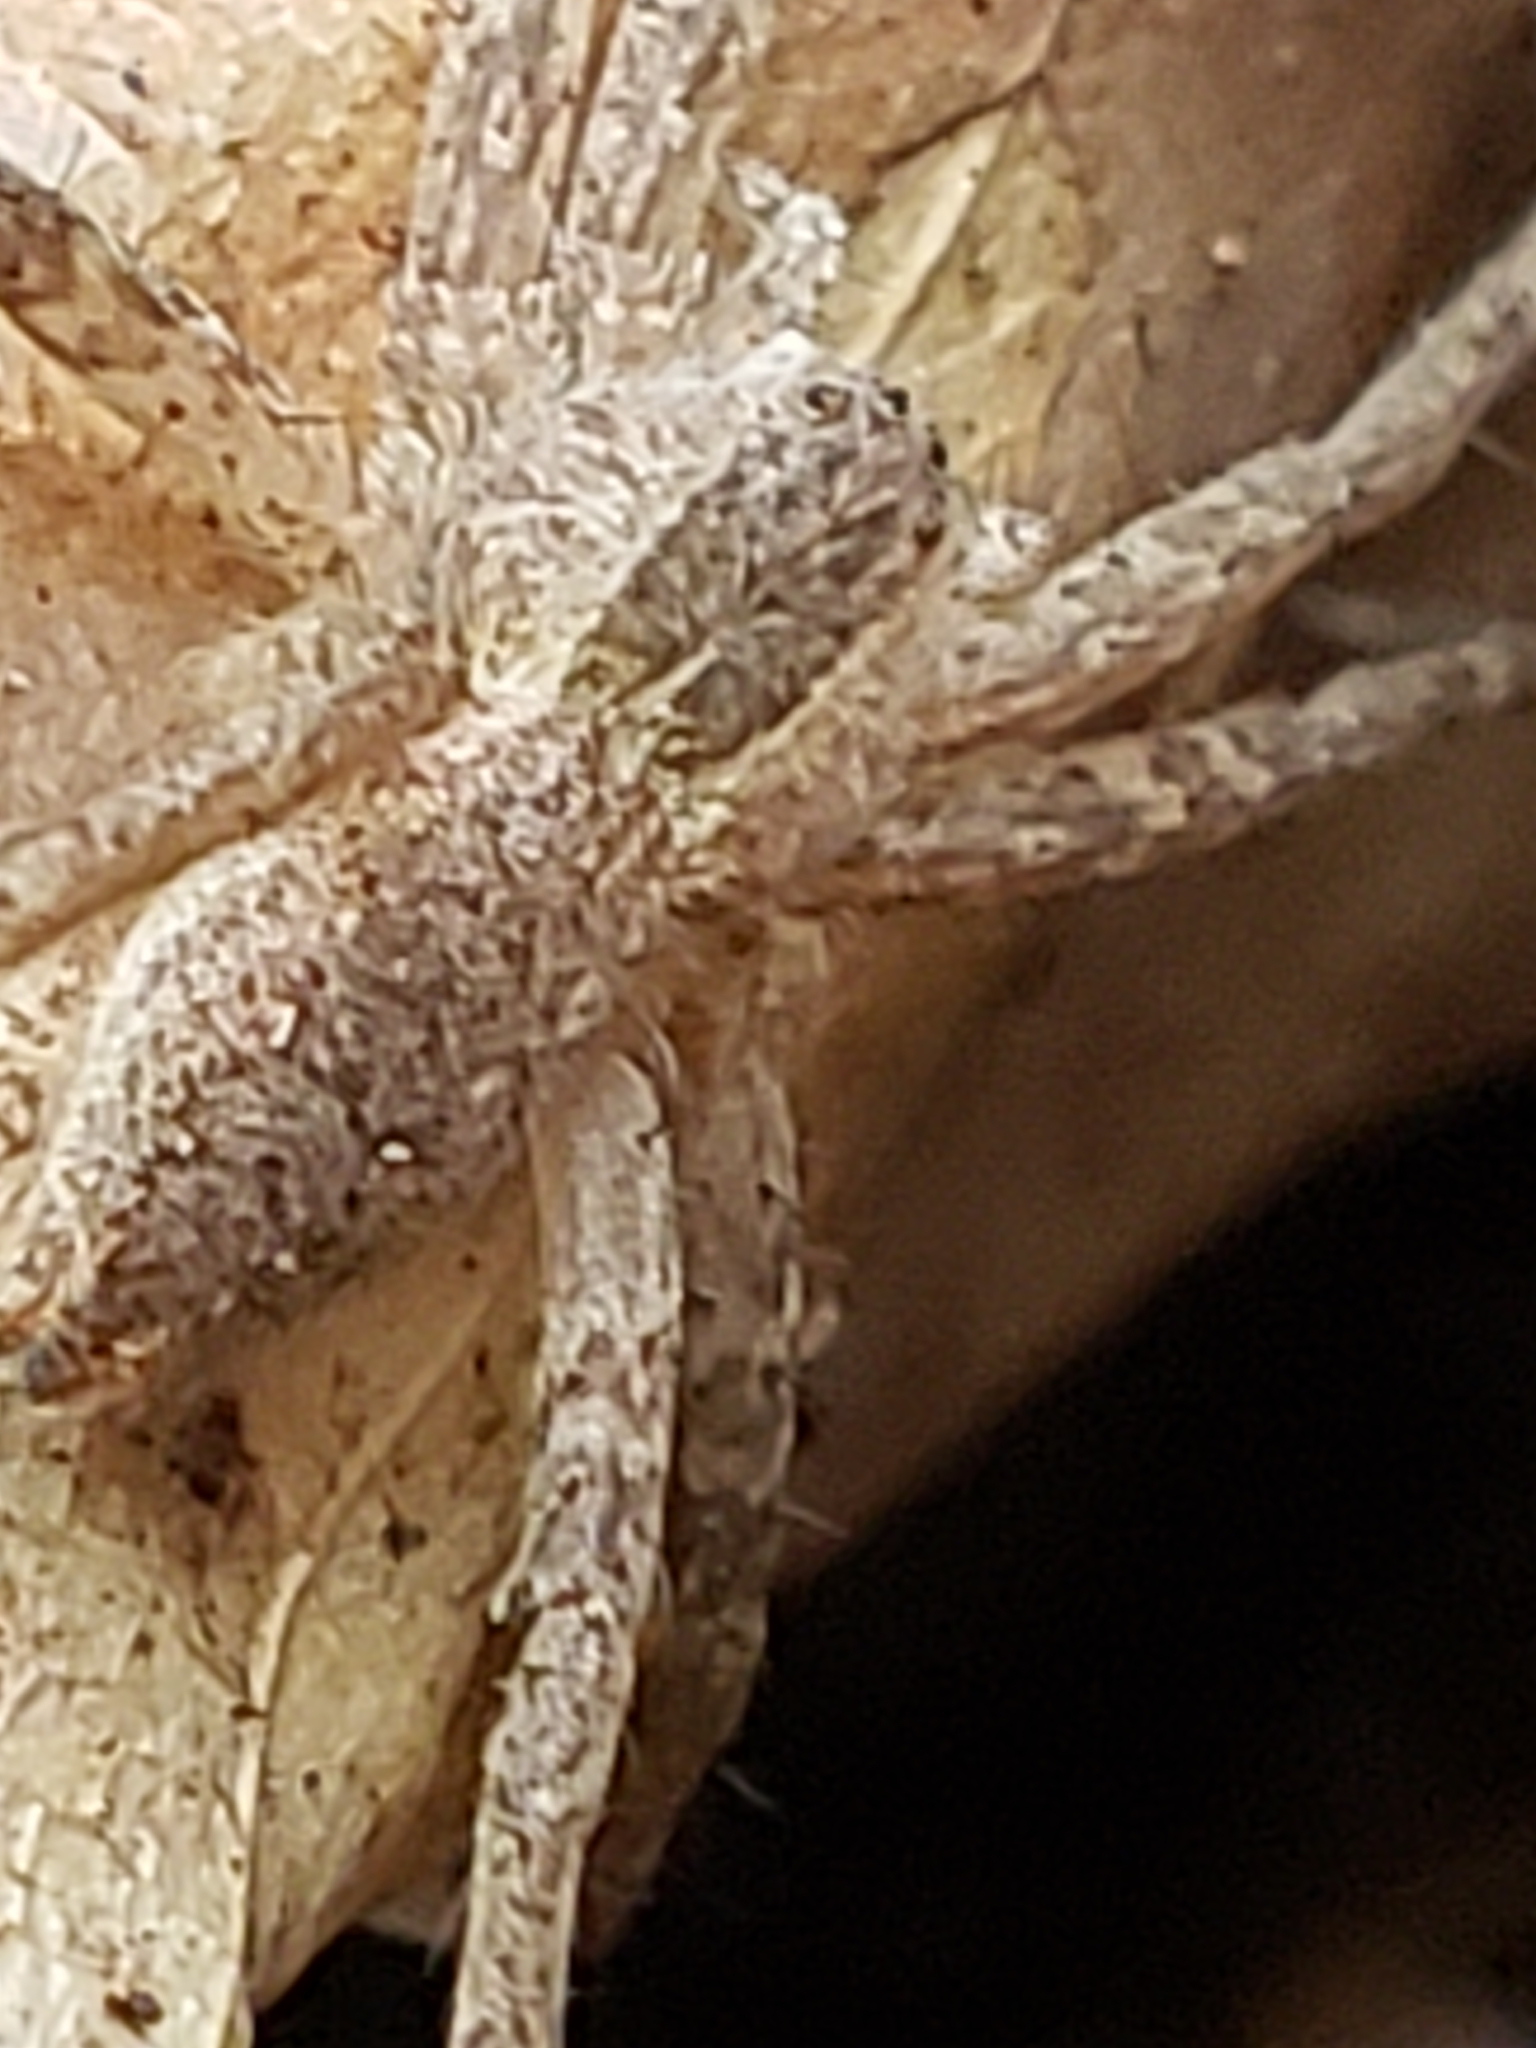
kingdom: Animalia
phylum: Arthropoda
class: Arachnida
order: Araneae
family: Pisauridae
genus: Pisaurina
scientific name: Pisaurina mira
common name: American nursery web spider
